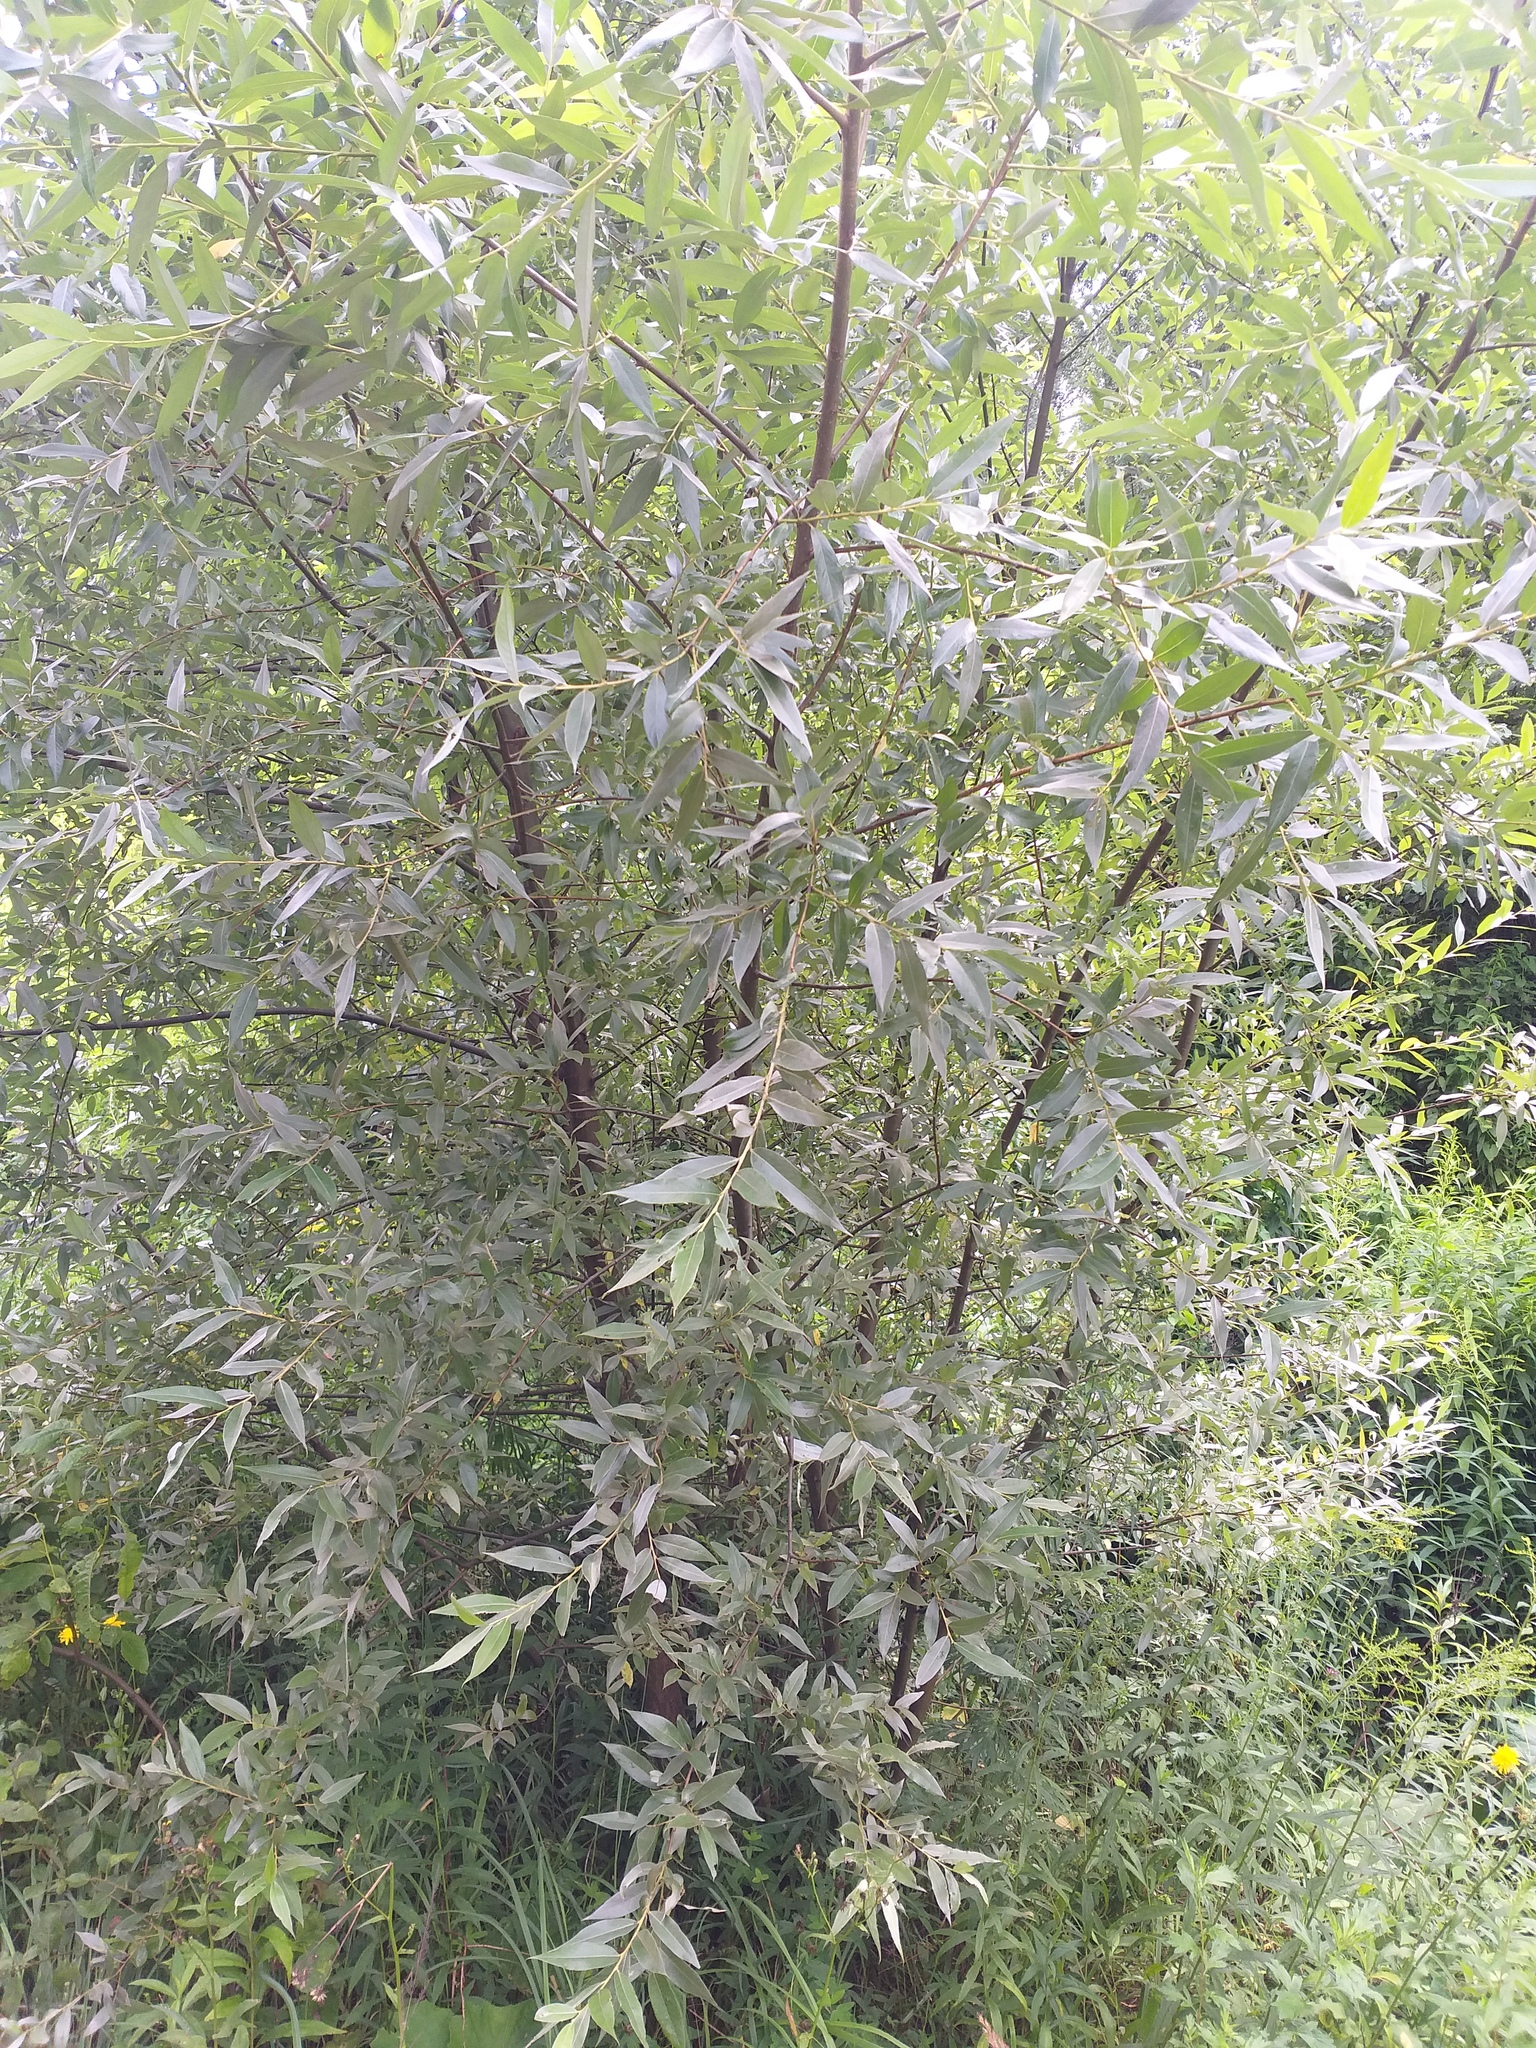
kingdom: Plantae
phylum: Tracheophyta
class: Magnoliopsida
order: Malpighiales
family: Salicaceae
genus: Salix
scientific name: Salix alba
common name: White willow
